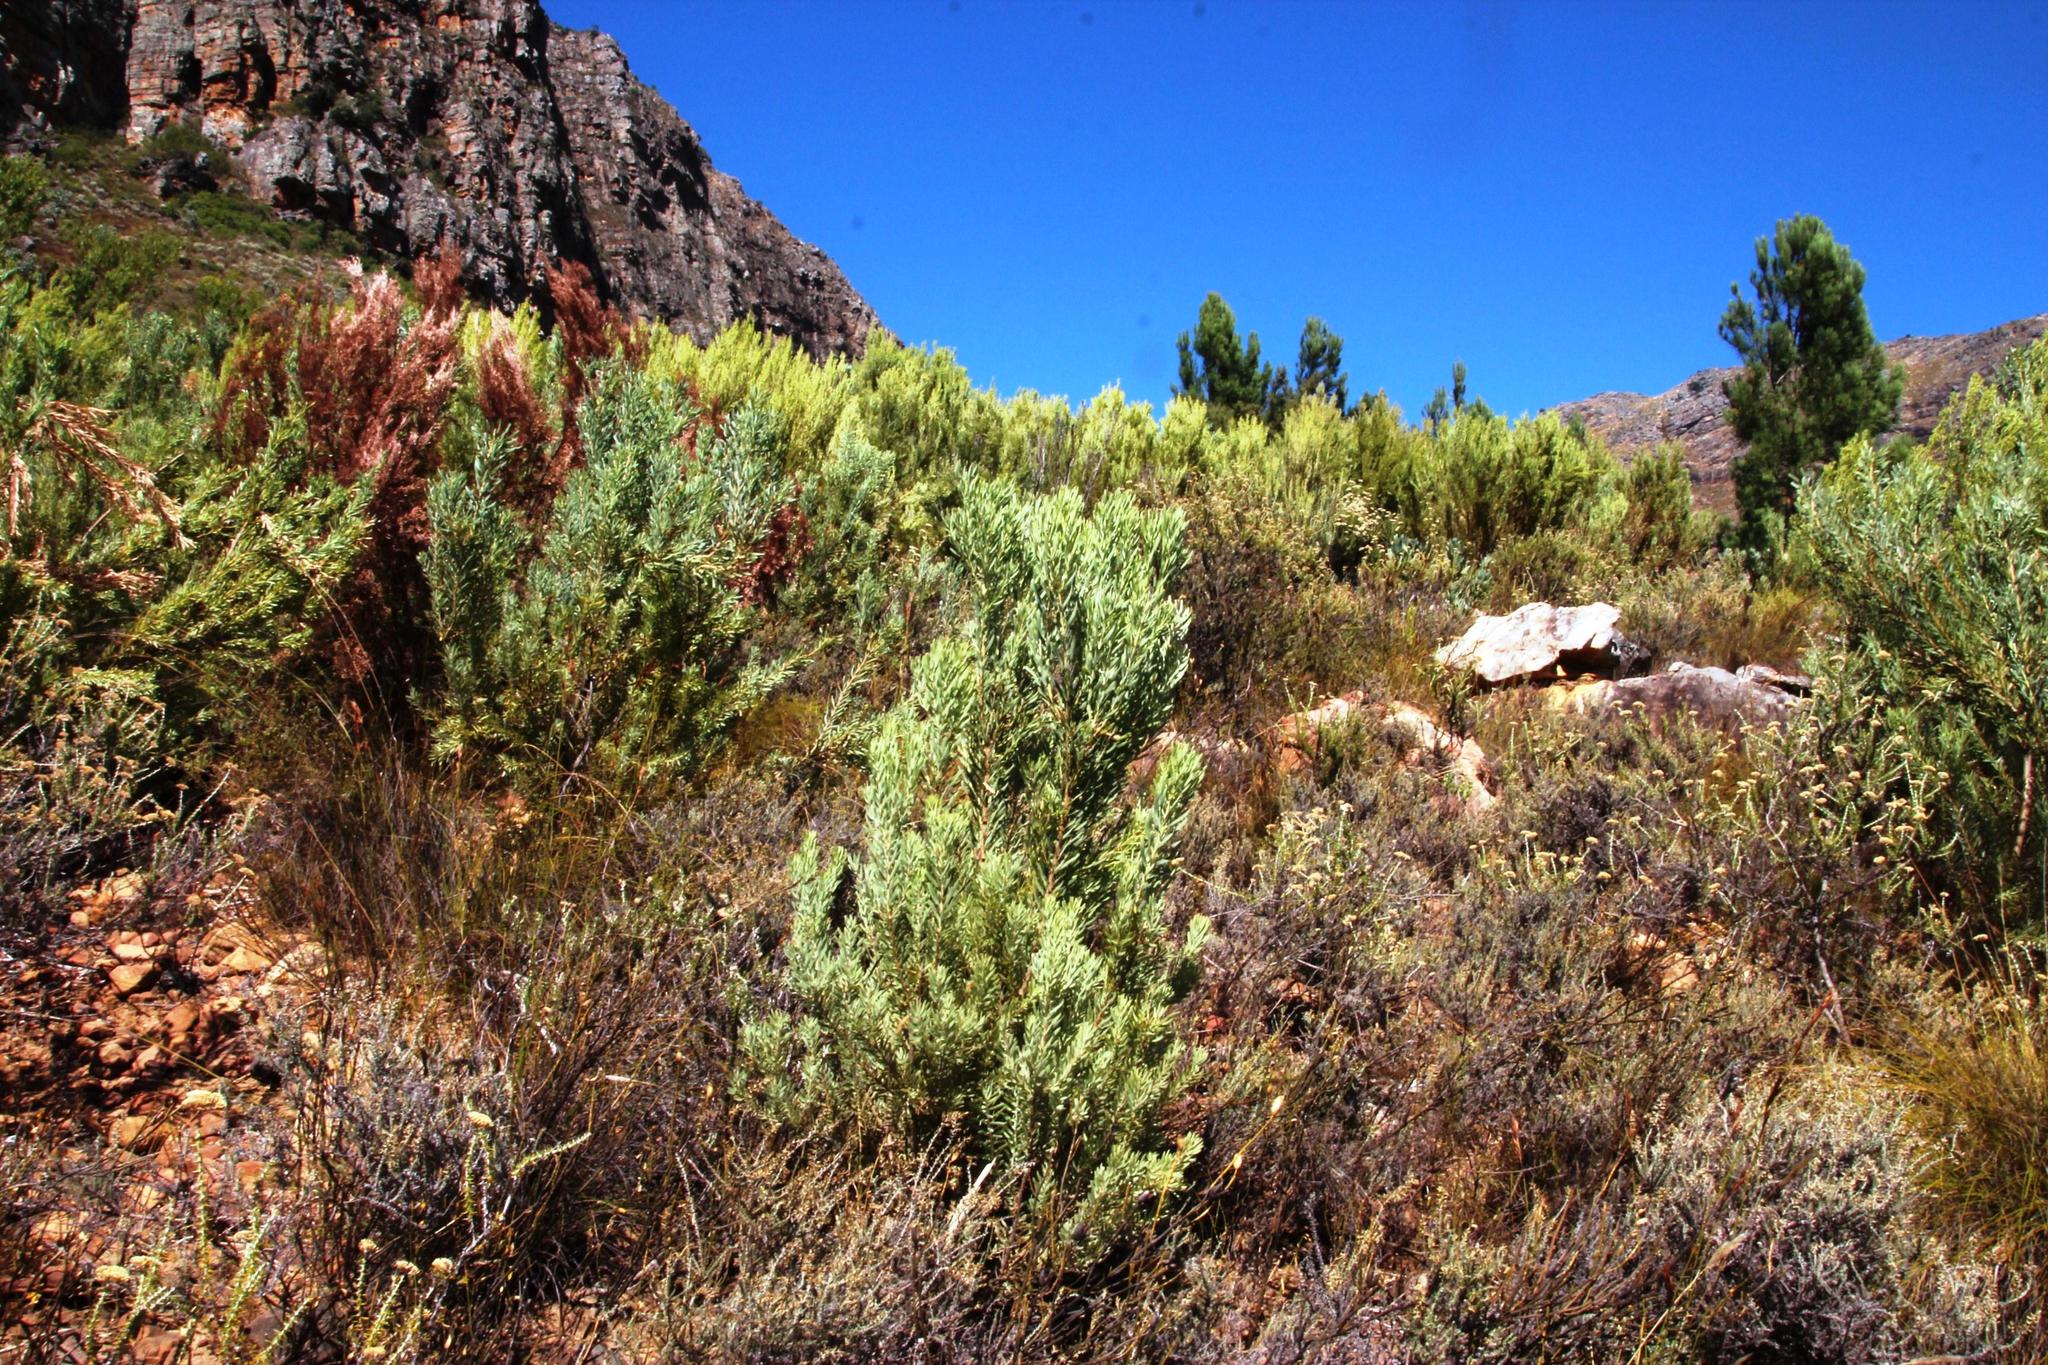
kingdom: Plantae
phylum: Tracheophyta
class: Magnoliopsida
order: Proteales
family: Proteaceae
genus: Leucadendron
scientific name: Leucadendron rubrum
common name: Spinning top
